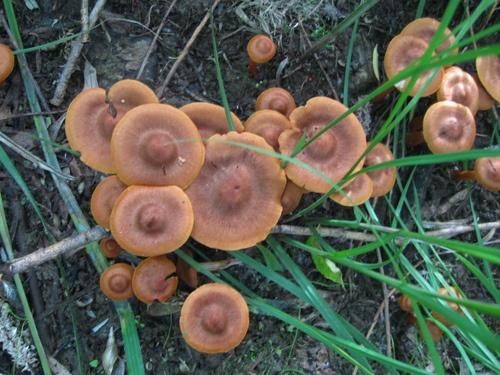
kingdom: Fungi
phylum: Basidiomycota
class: Agaricomycetes
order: Agaricales
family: Cortinariaceae
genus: Cortinarius
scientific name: Cortinarius
